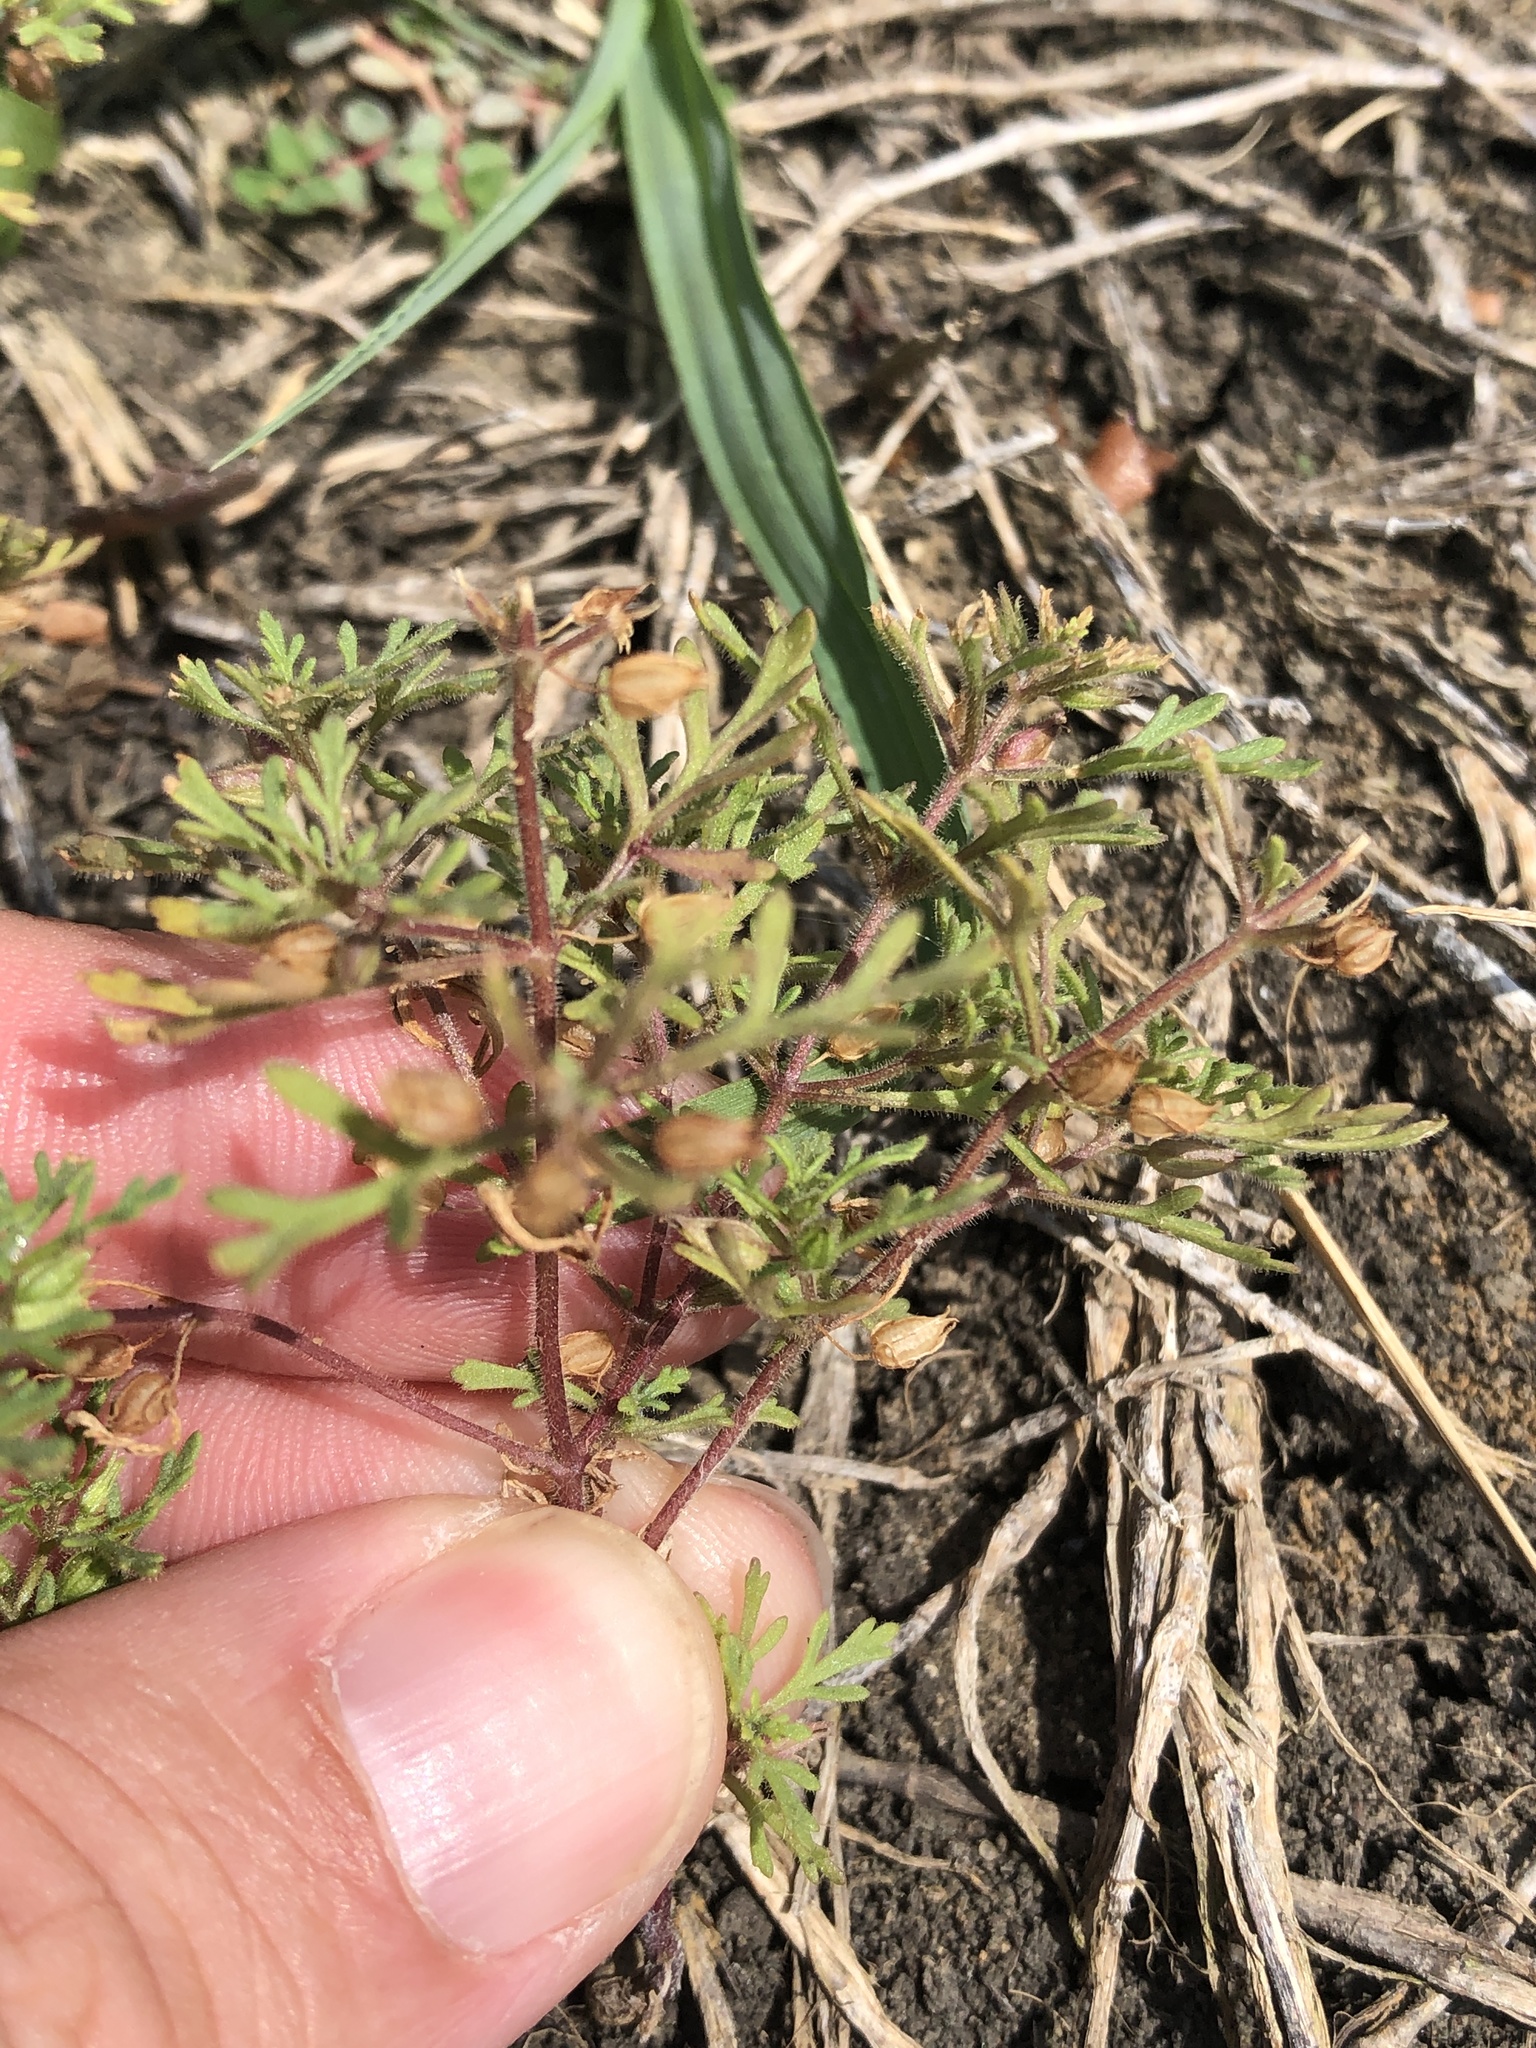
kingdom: Plantae
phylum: Tracheophyta
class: Magnoliopsida
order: Lamiales
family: Plantaginaceae
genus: Leucospora
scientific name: Leucospora multifida
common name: Narrow-leaf paleseed
